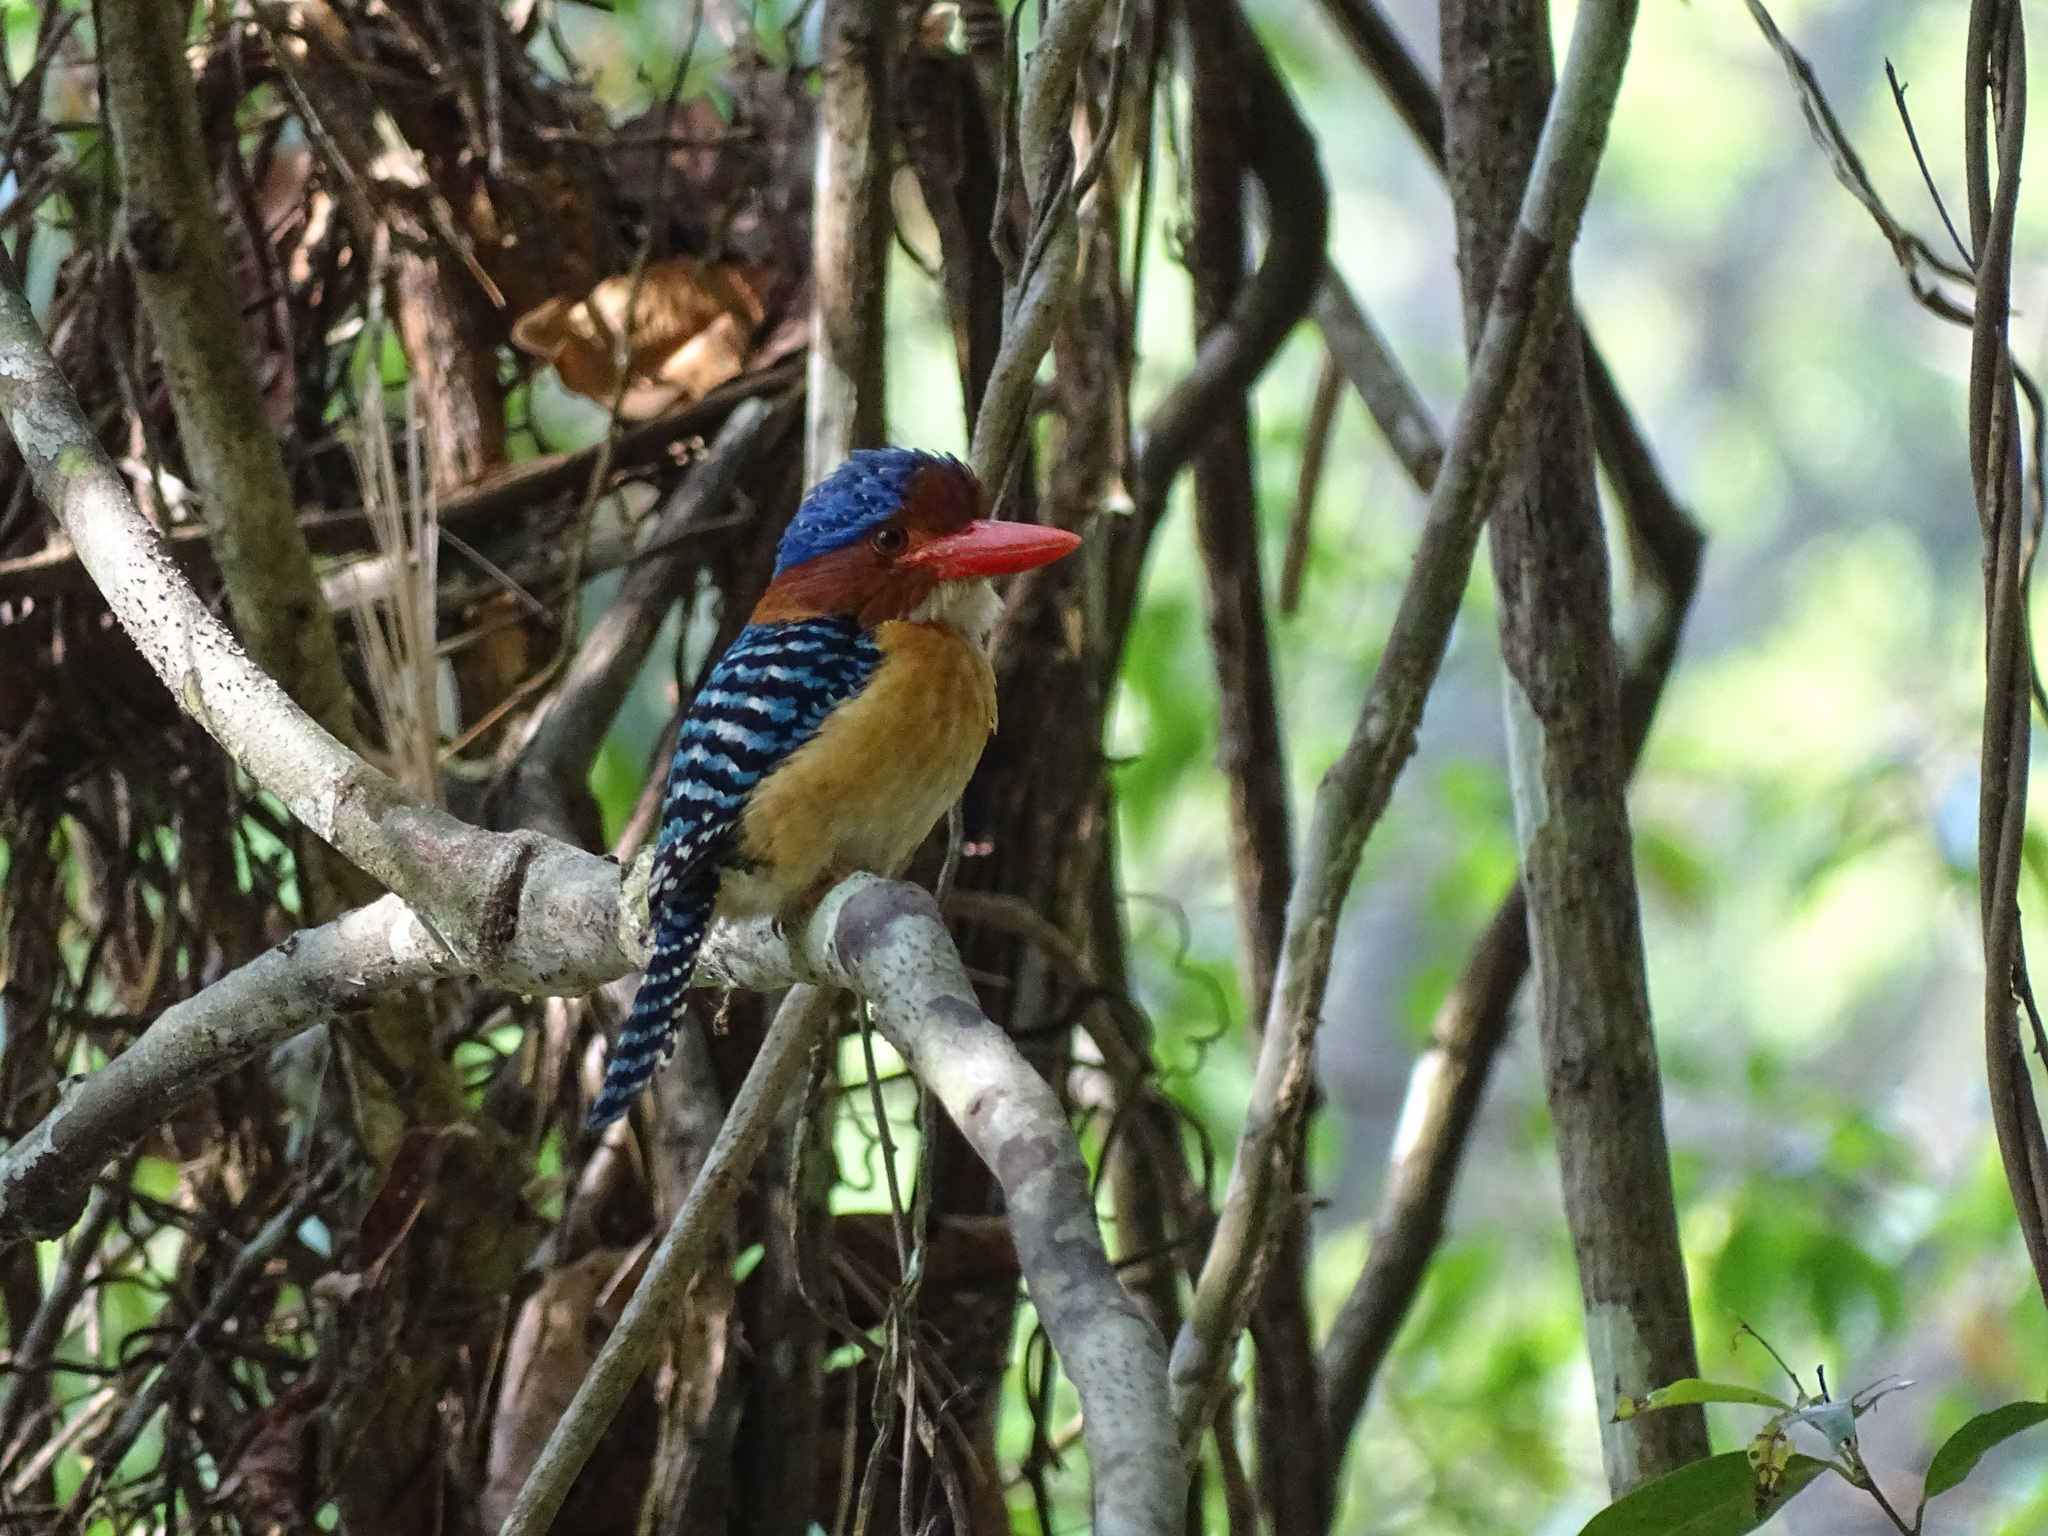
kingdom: Animalia
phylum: Chordata
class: Aves
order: Coraciiformes
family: Alcedinidae
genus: Lacedo
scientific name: Lacedo pulchella
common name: Banded kingfisher
